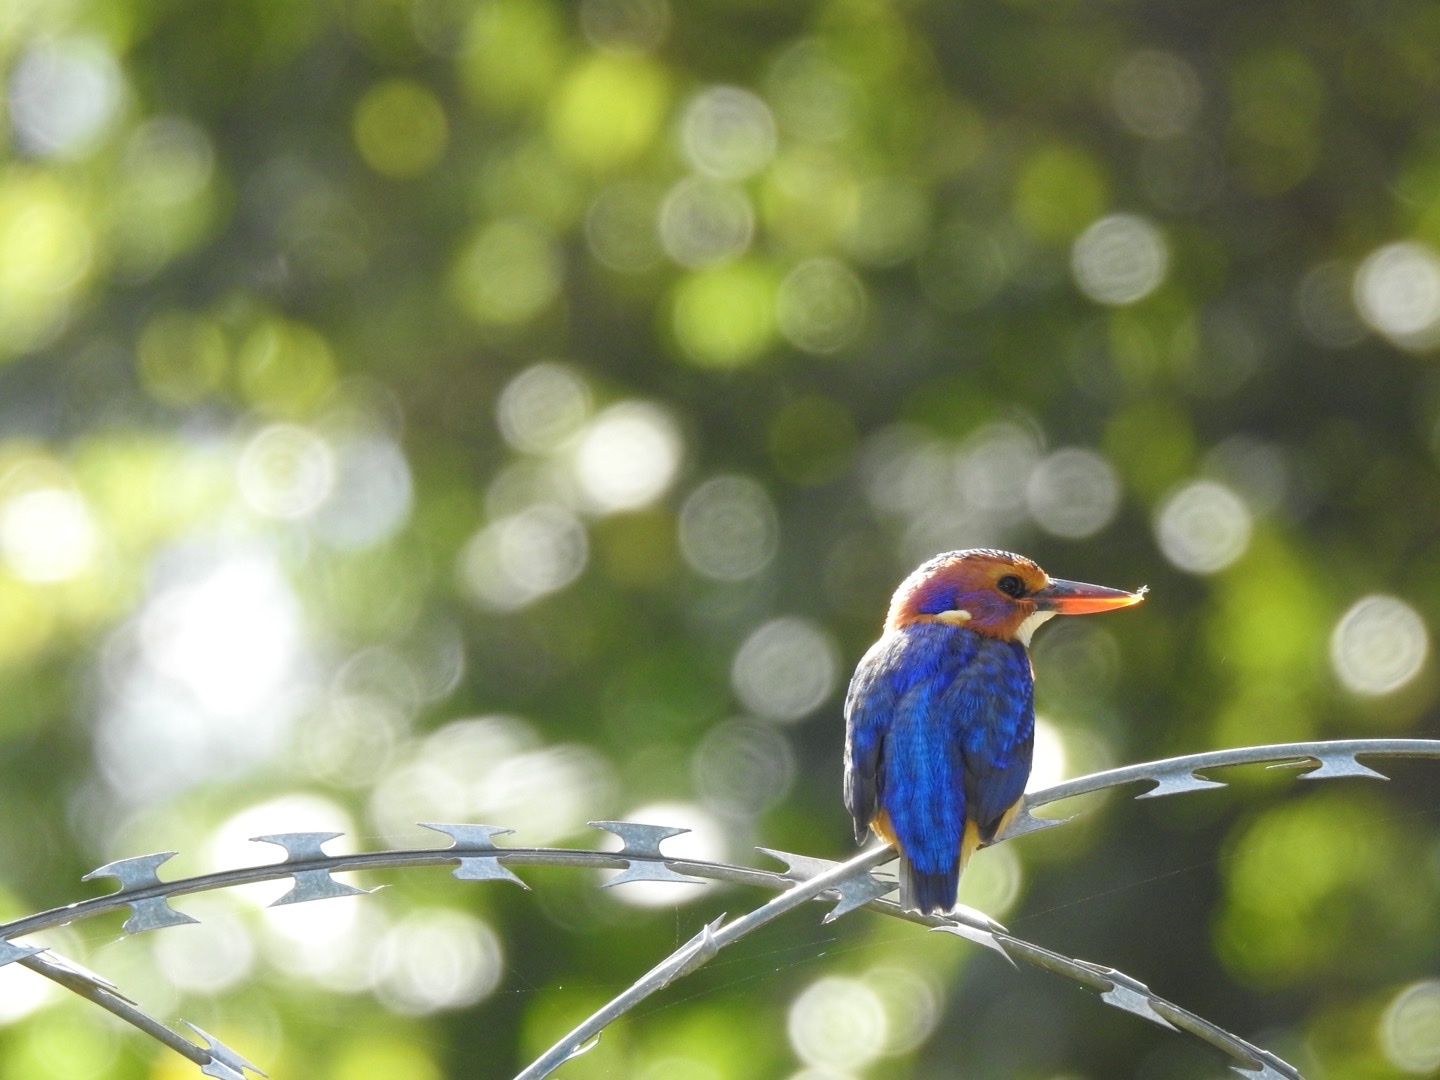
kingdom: Animalia
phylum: Chordata
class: Aves
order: Coraciiformes
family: Alcedinidae
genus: Ispidina
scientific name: Ispidina picta
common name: African pygmy-kingfisher
